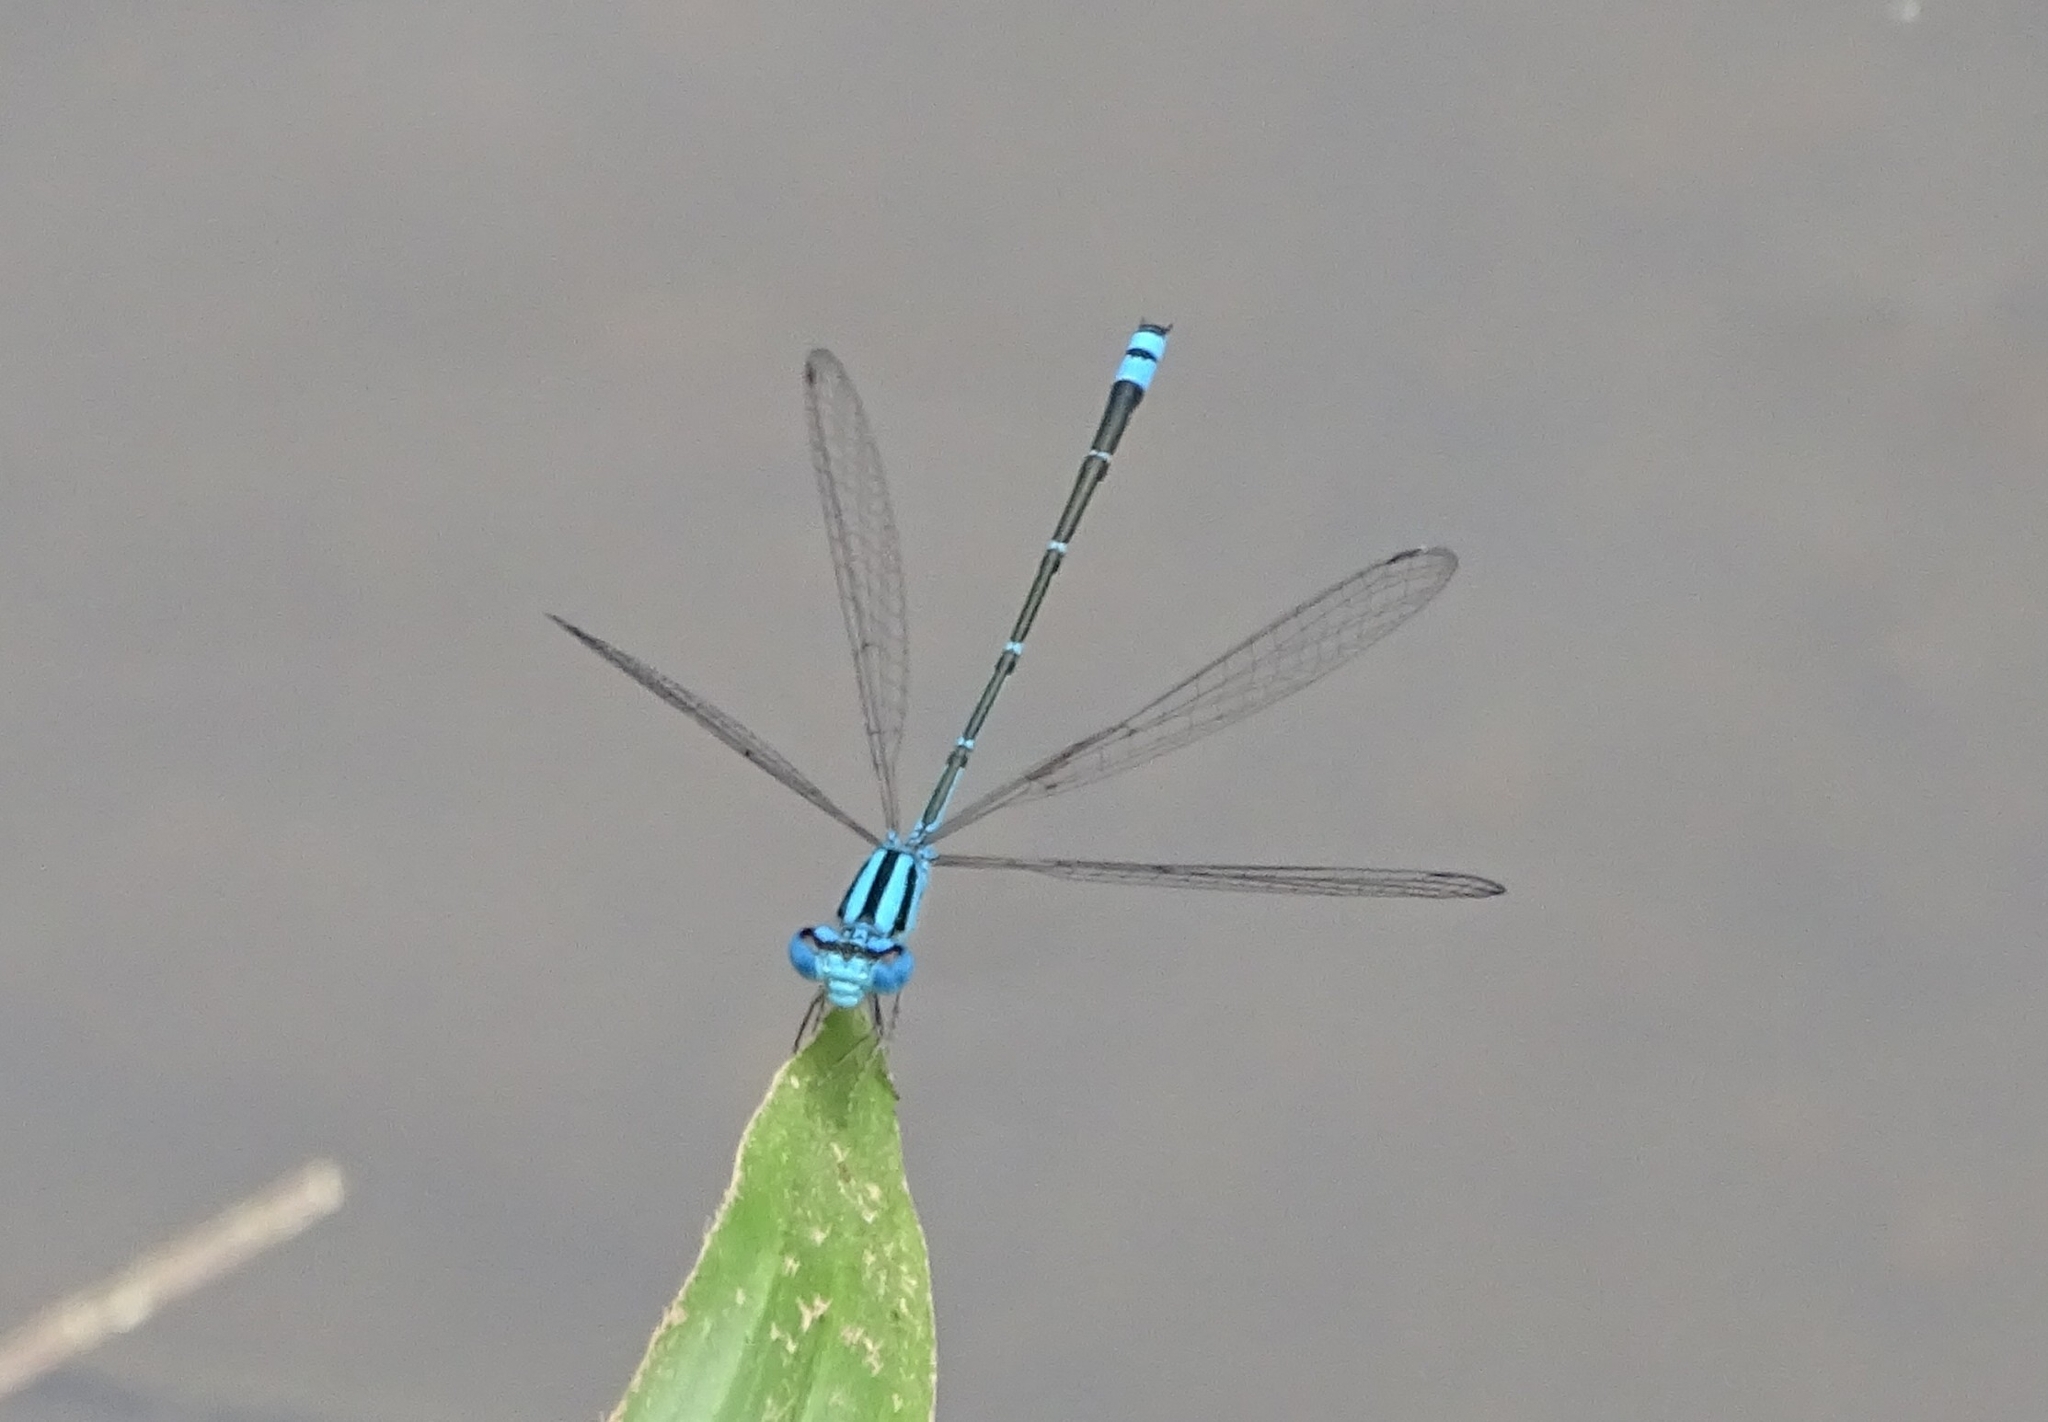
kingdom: Animalia
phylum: Arthropoda
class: Insecta
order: Odonata
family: Coenagrionidae
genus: Pseudagrion
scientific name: Pseudagrion microcephalum
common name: Blue riverdamsel
